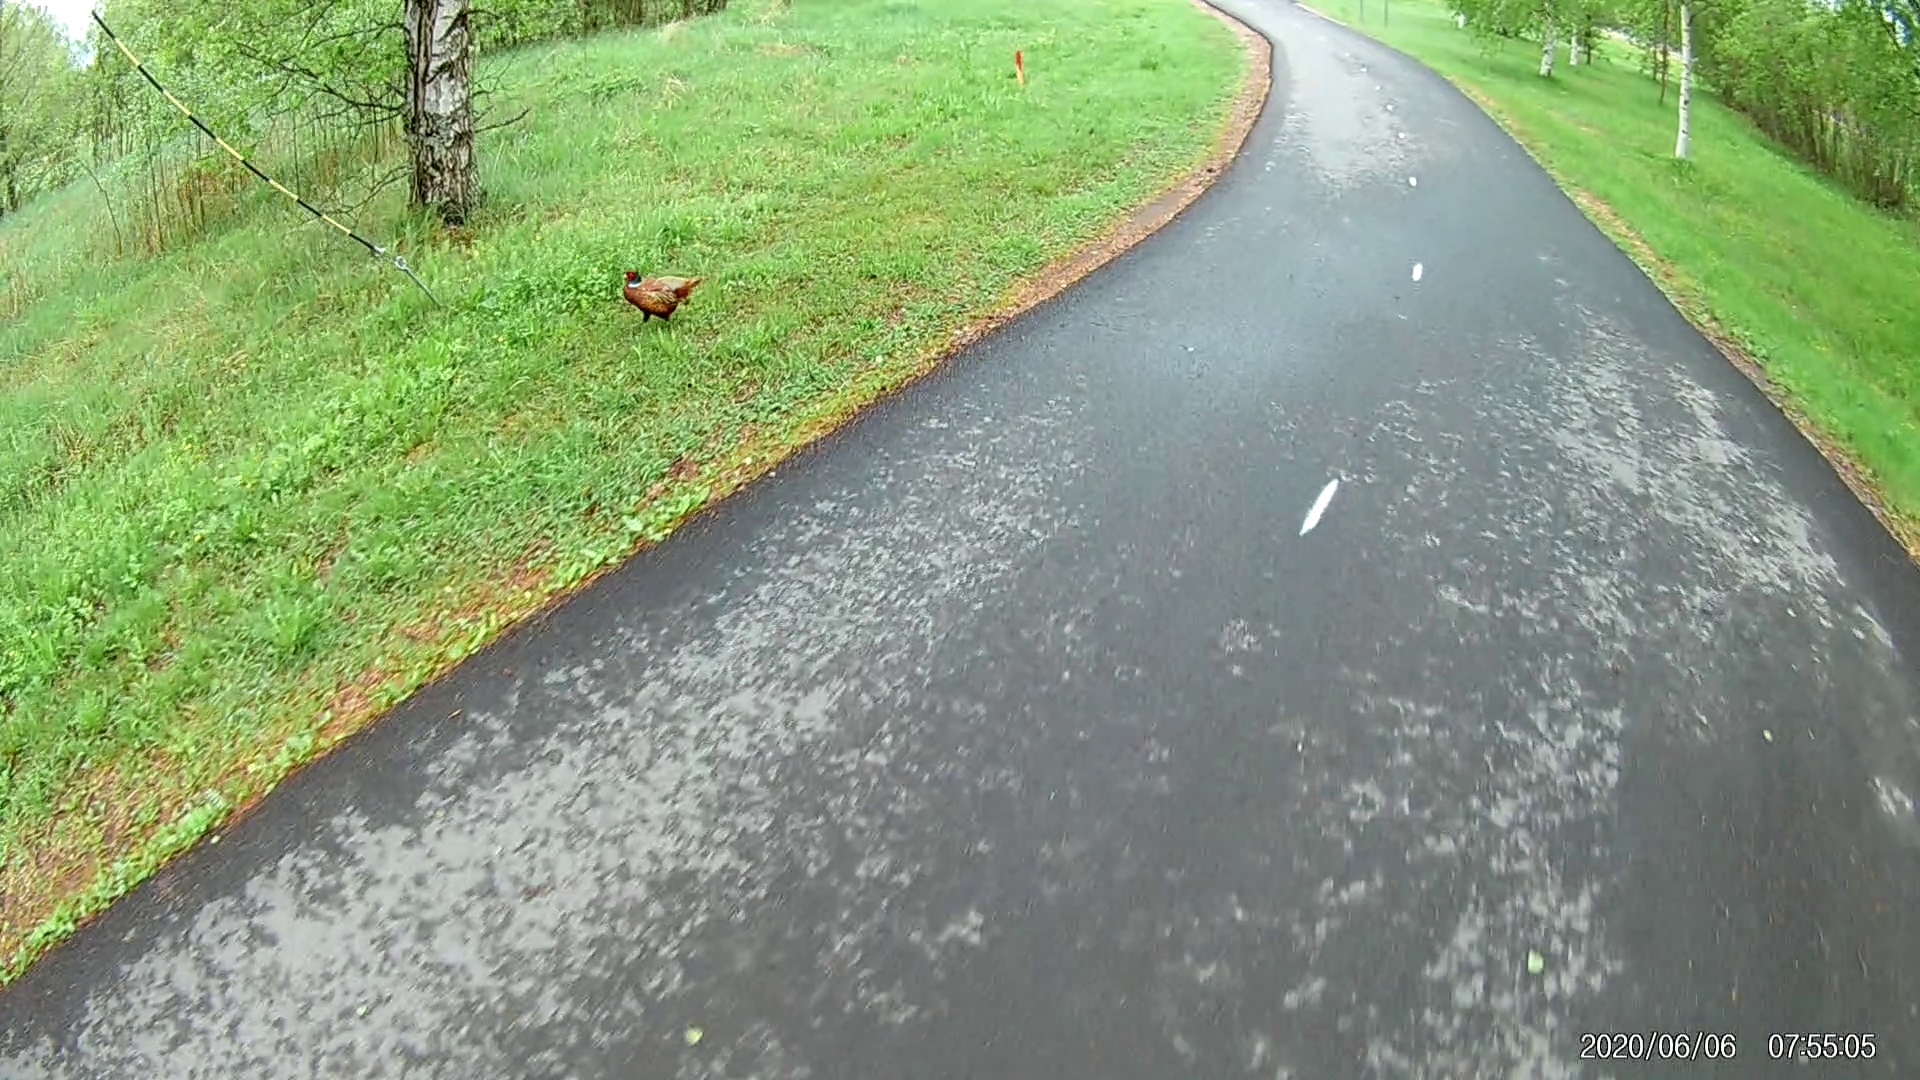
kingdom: Animalia
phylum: Chordata
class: Aves
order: Galliformes
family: Phasianidae
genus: Phasianus
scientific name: Phasianus colchicus
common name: Common pheasant
